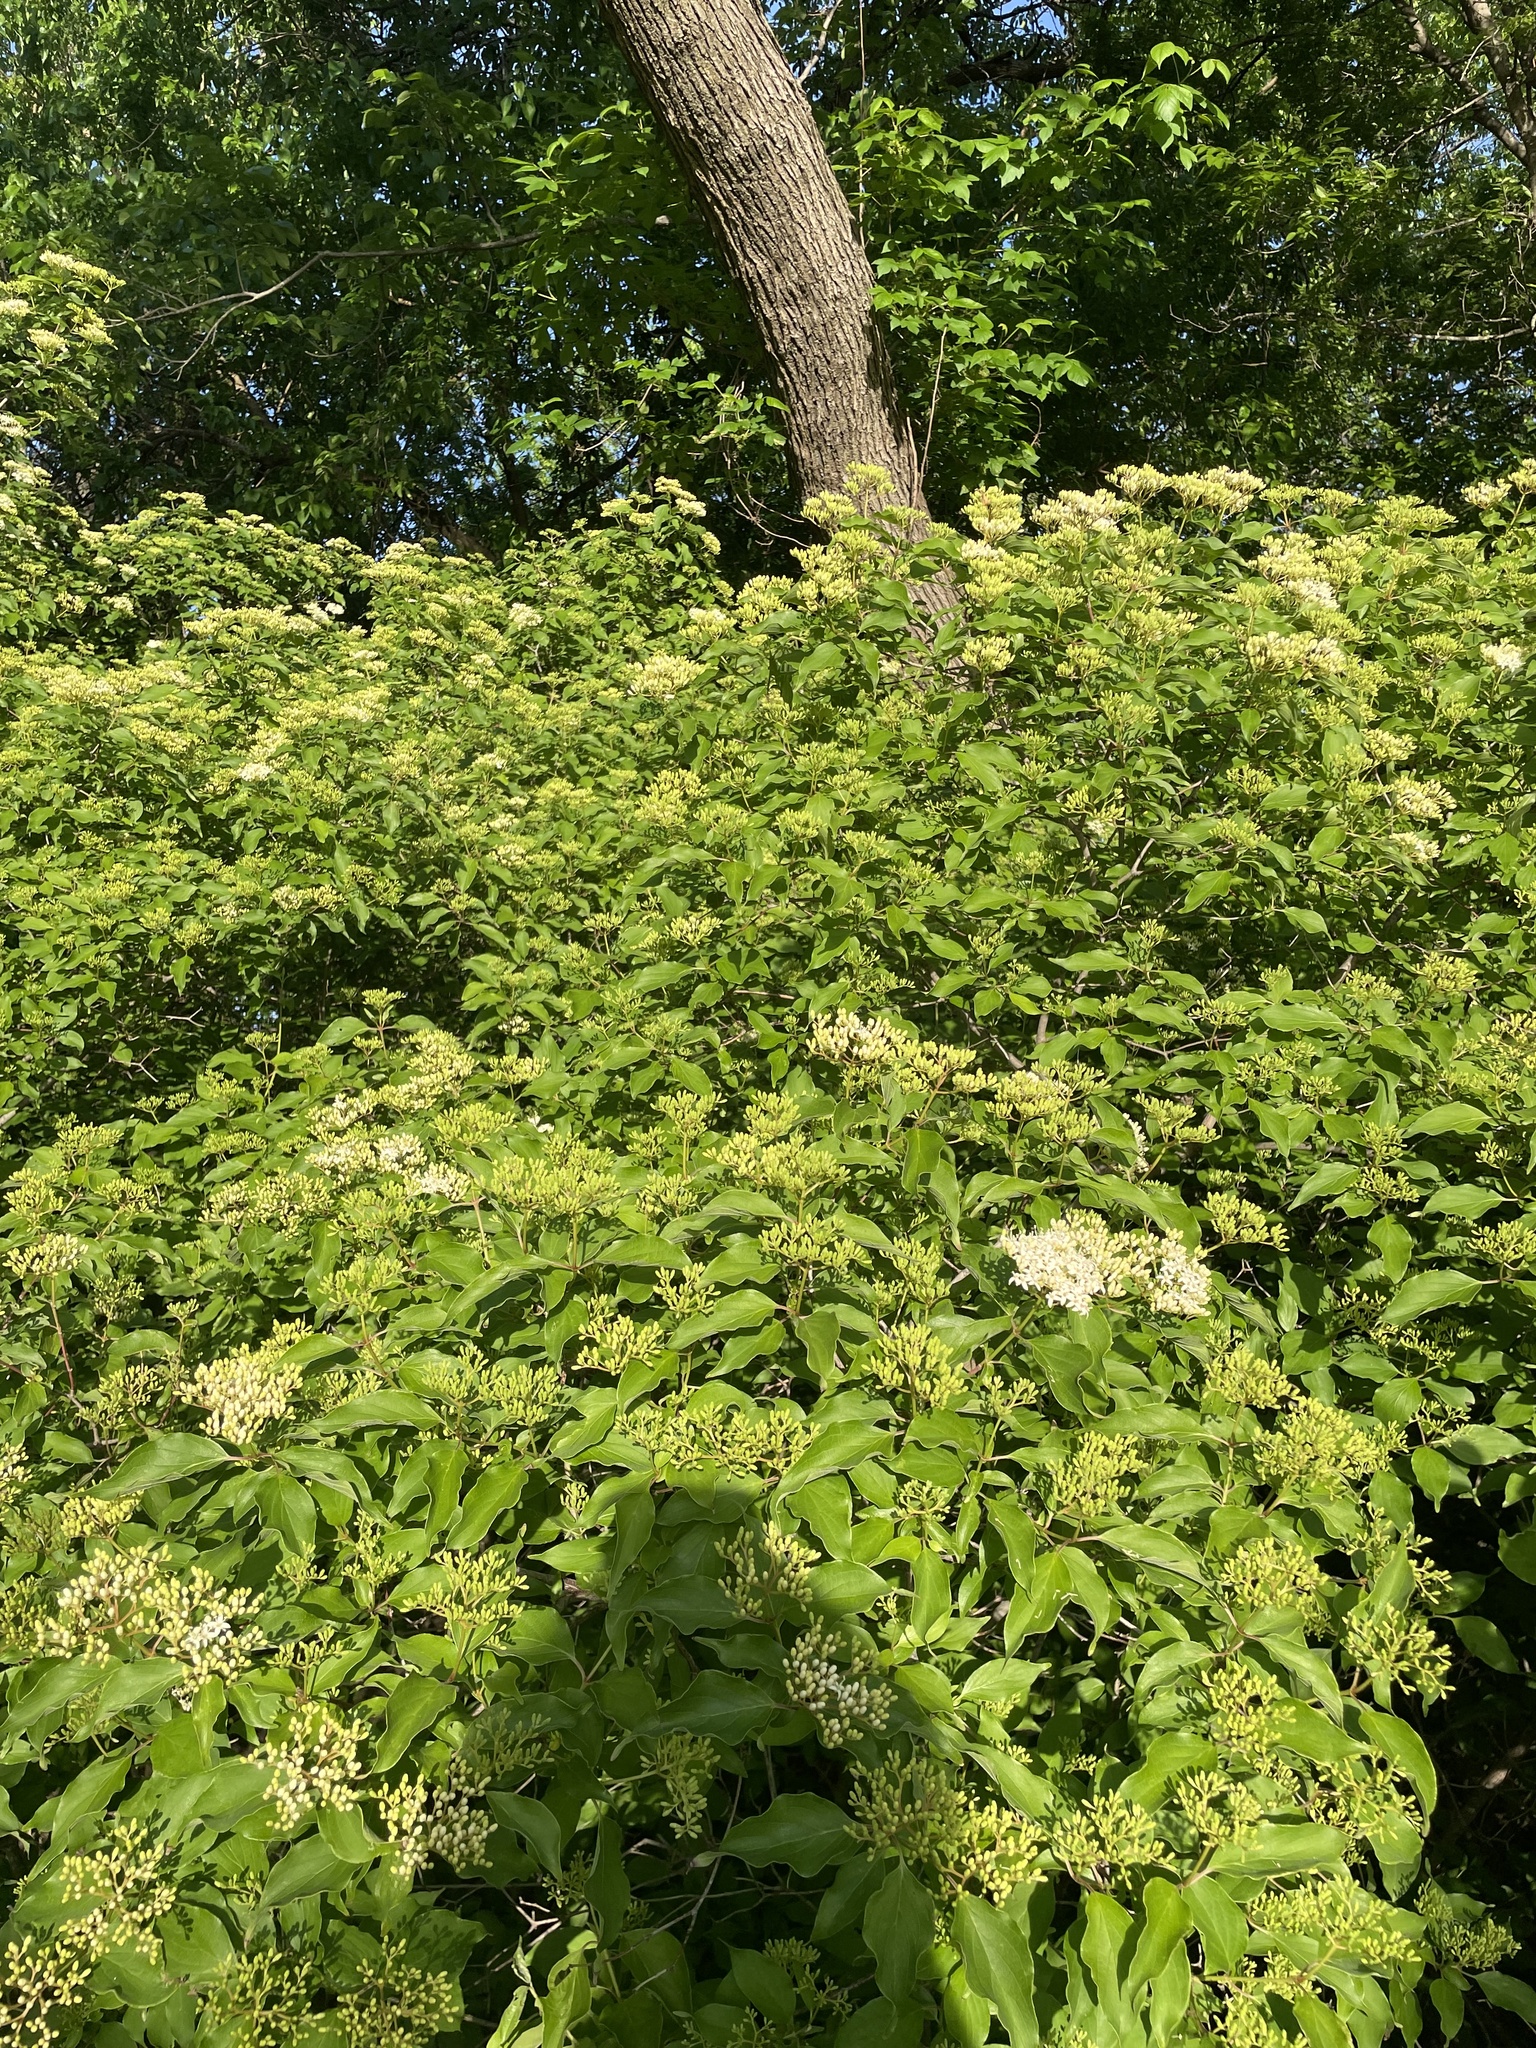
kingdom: Plantae
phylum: Tracheophyta
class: Magnoliopsida
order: Cornales
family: Cornaceae
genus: Cornus
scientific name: Cornus drummondii
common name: Rough-leaf dogwood
